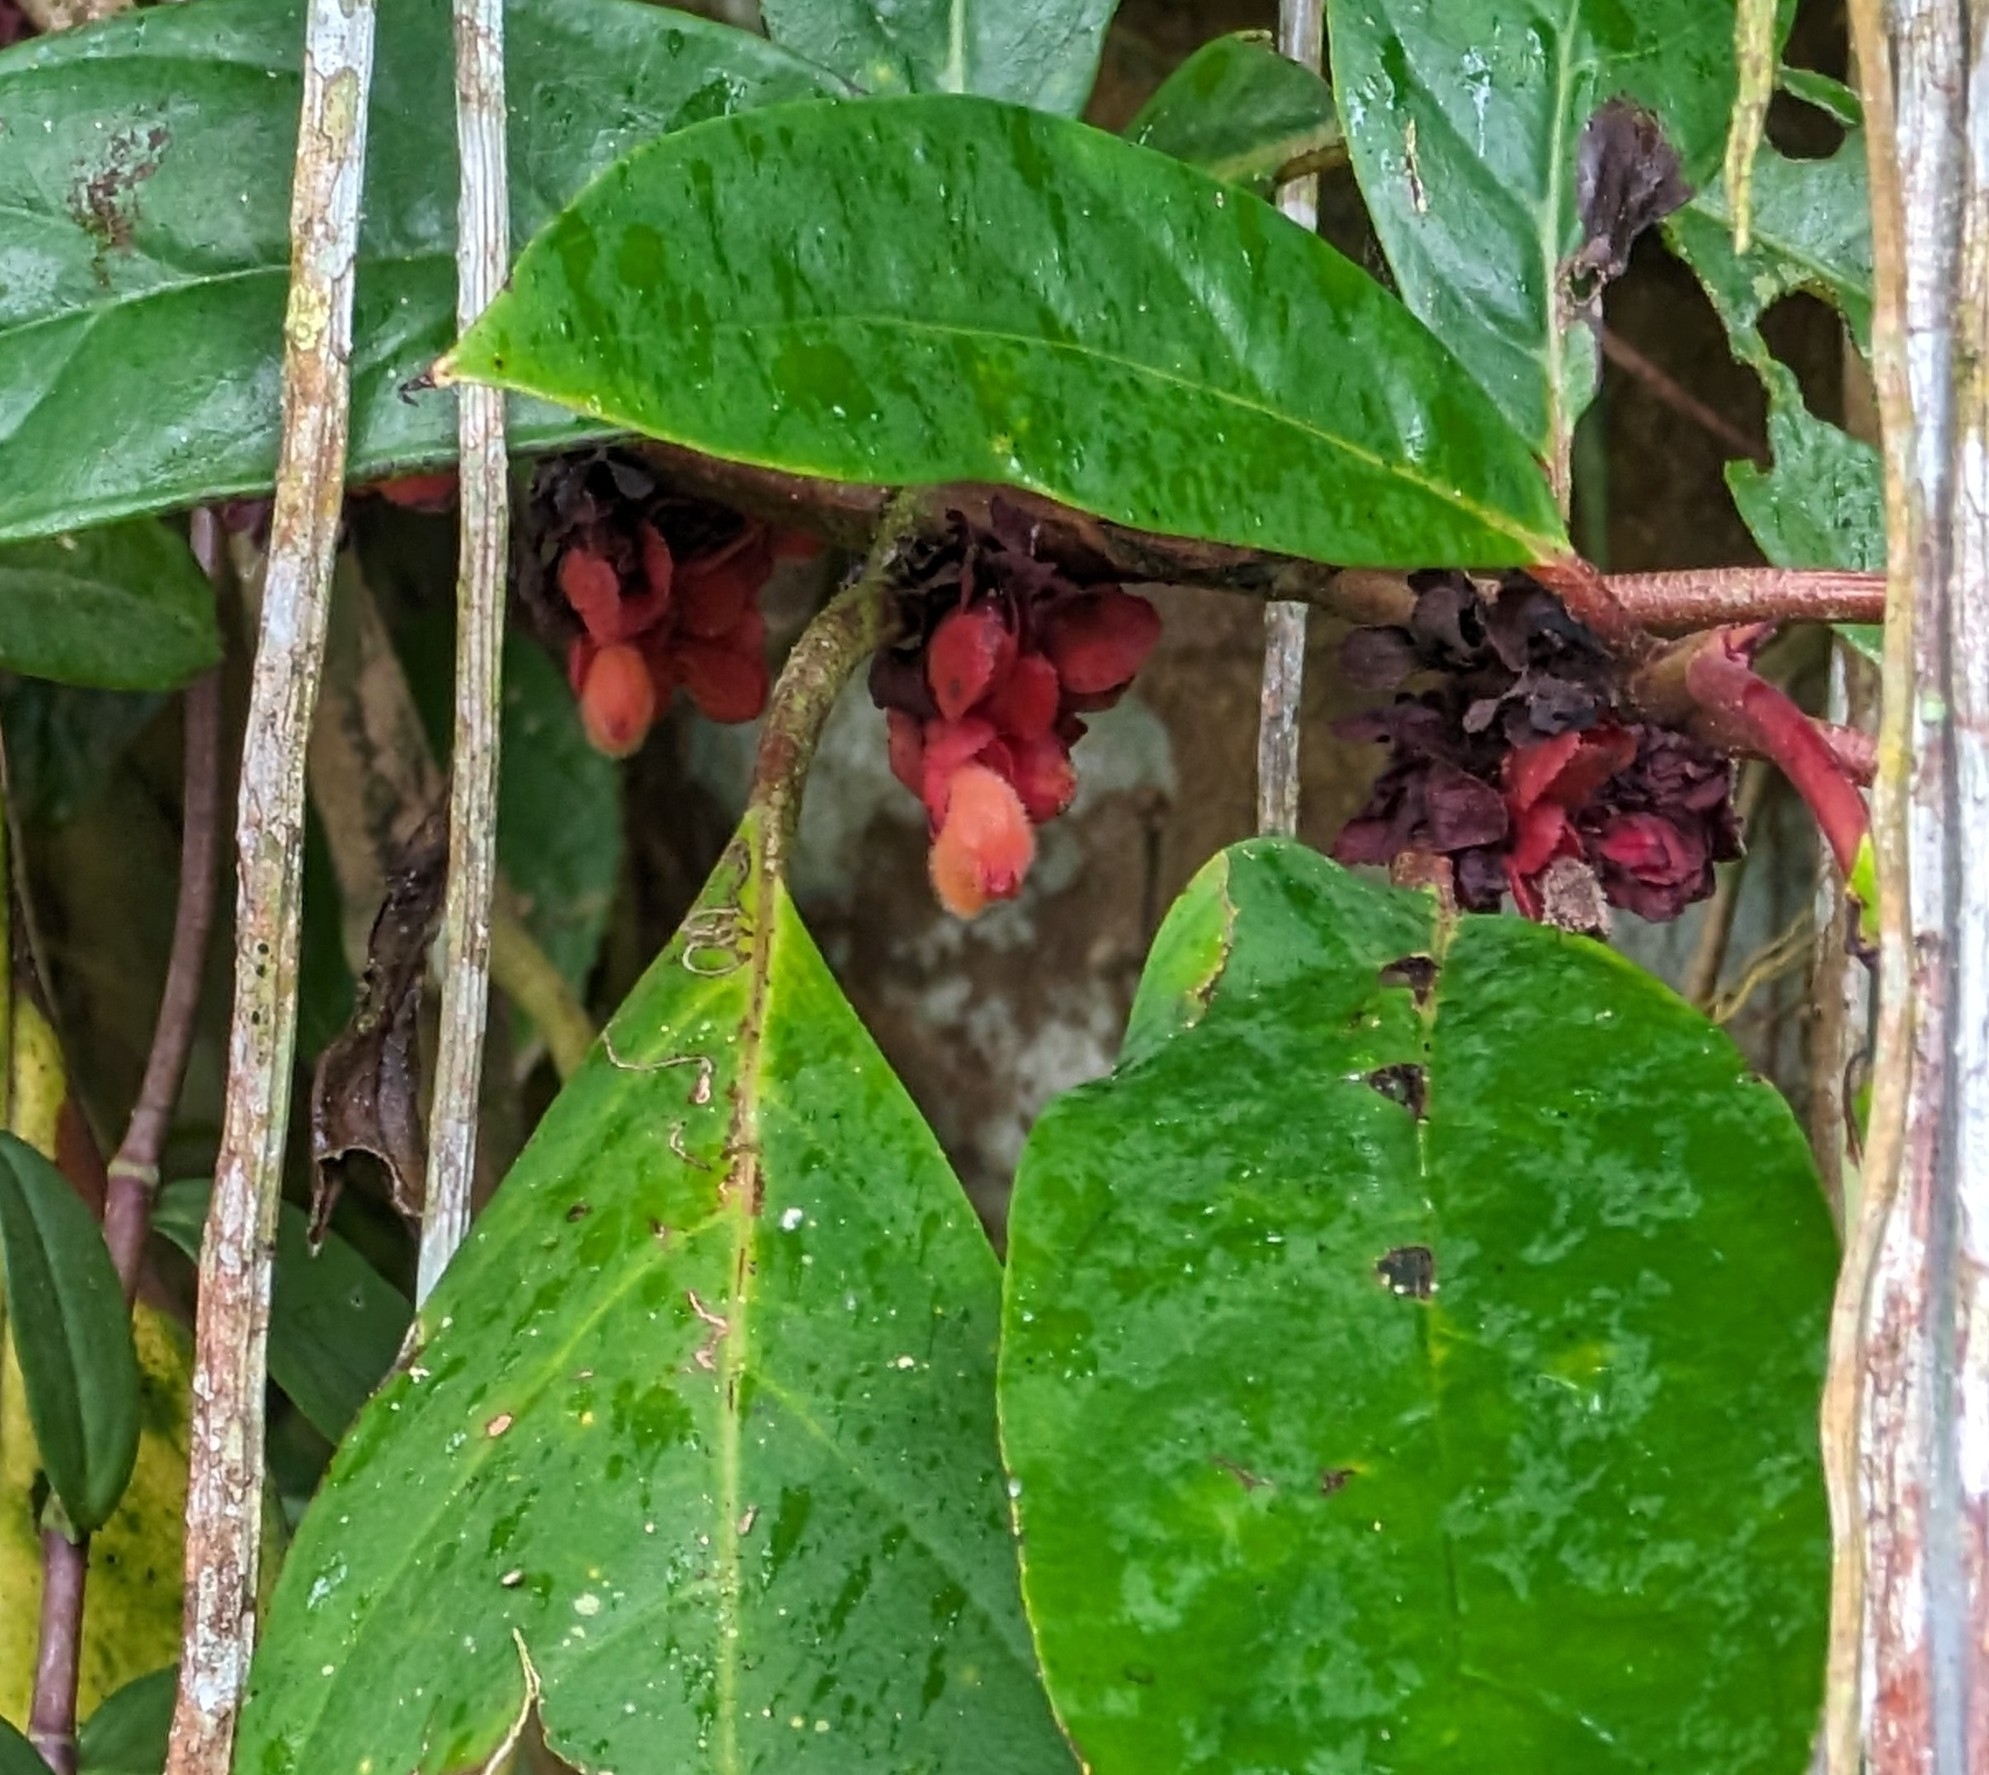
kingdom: Plantae
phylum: Tracheophyta
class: Magnoliopsida
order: Lamiales
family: Gesneriaceae
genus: Drymonia
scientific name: Drymonia coriacea
